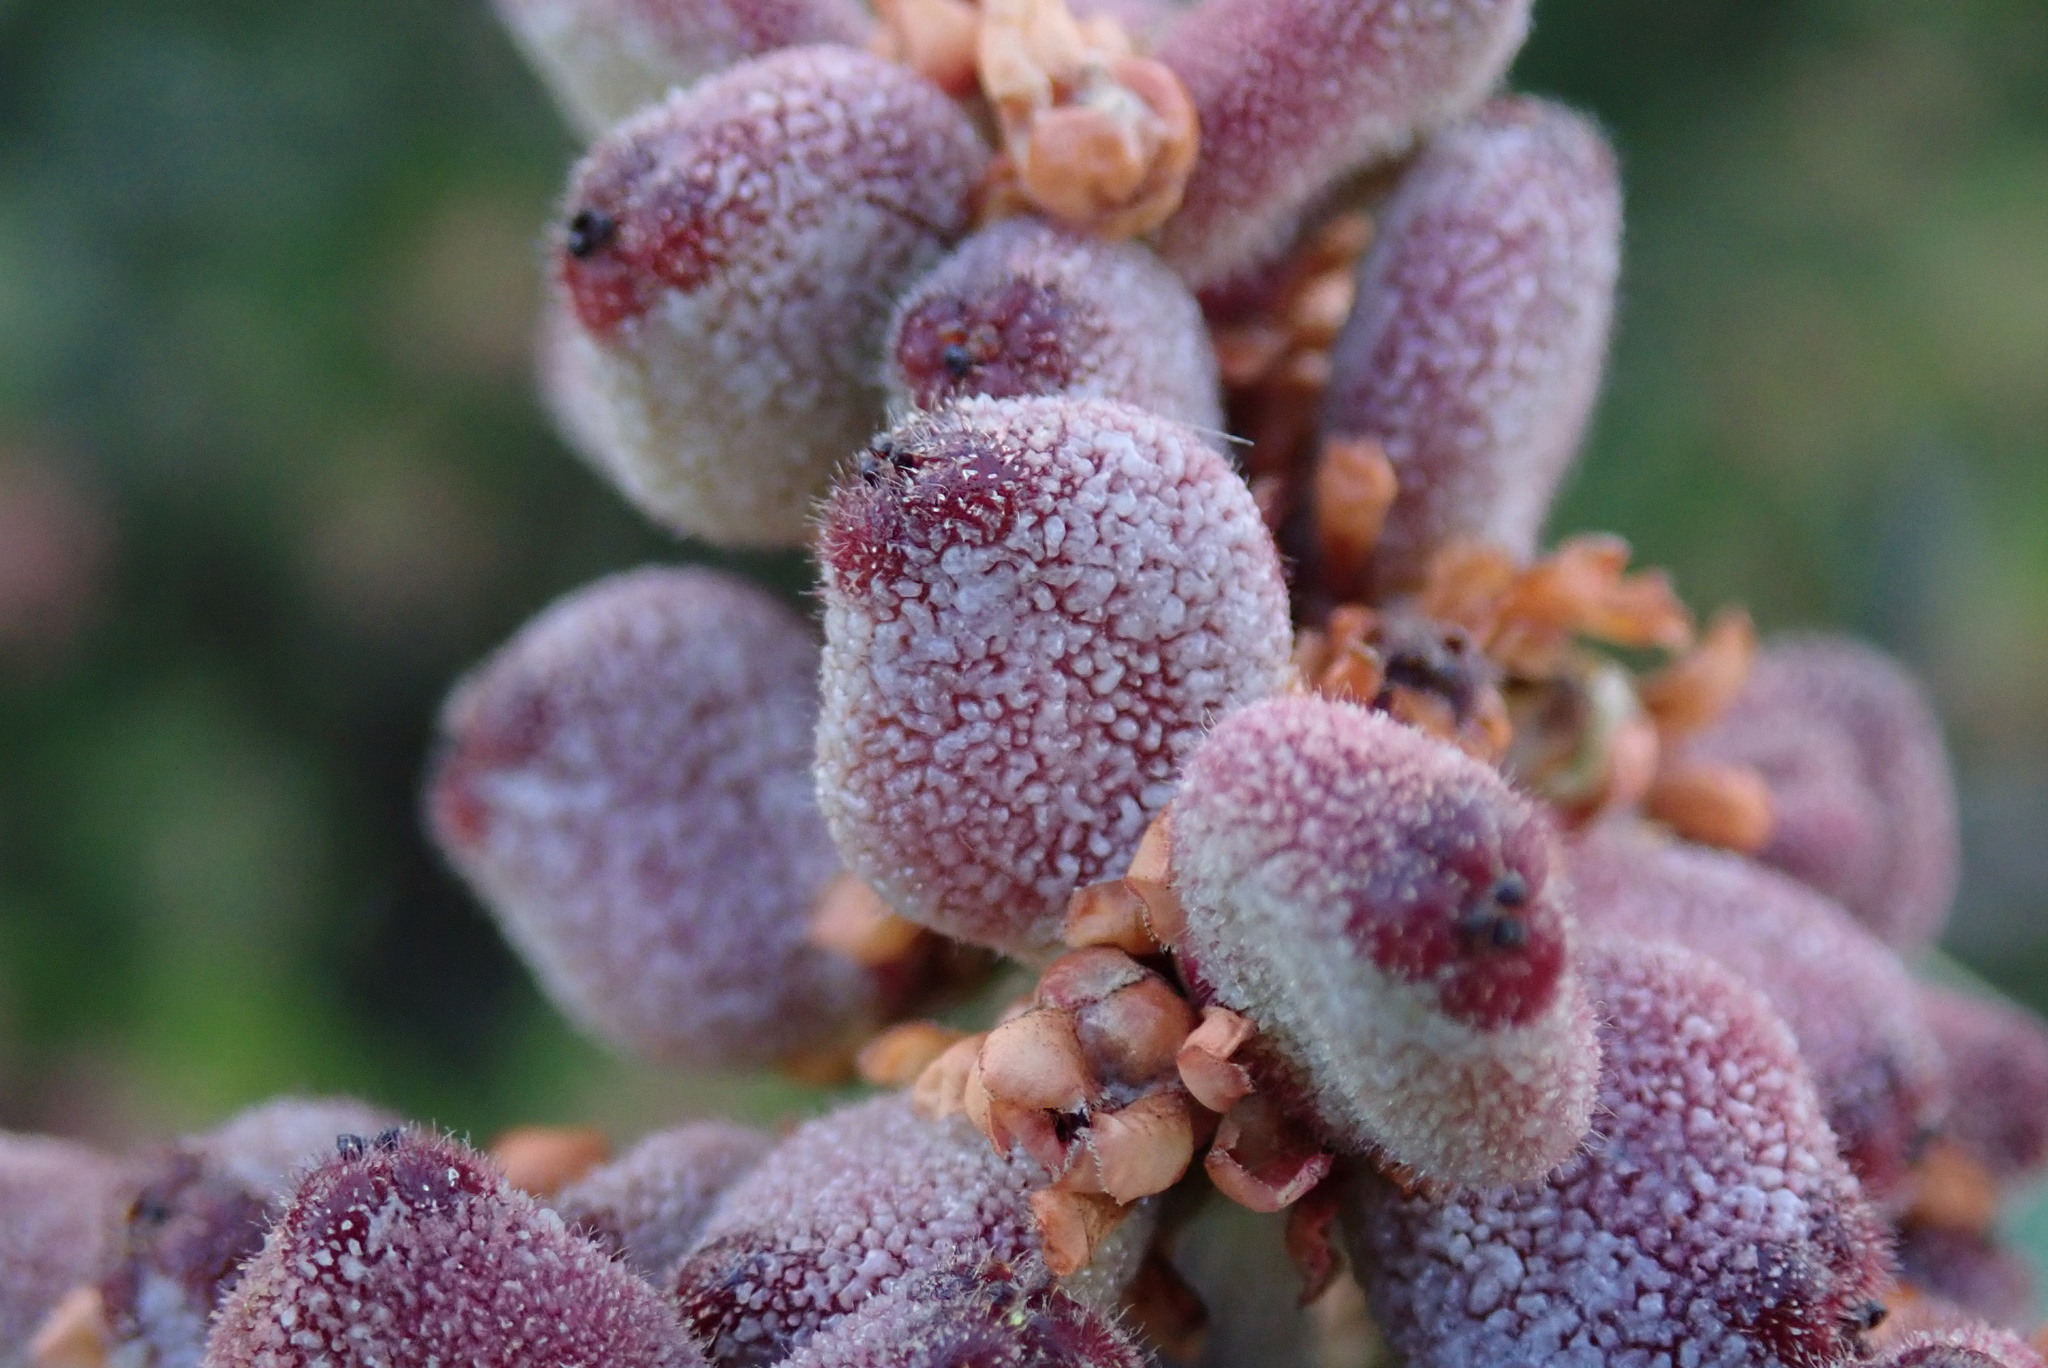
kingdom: Plantae
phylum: Tracheophyta
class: Magnoliopsida
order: Sapindales
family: Anacardiaceae
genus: Rhus
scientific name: Rhus integrifolia
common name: Lemonade sumac
